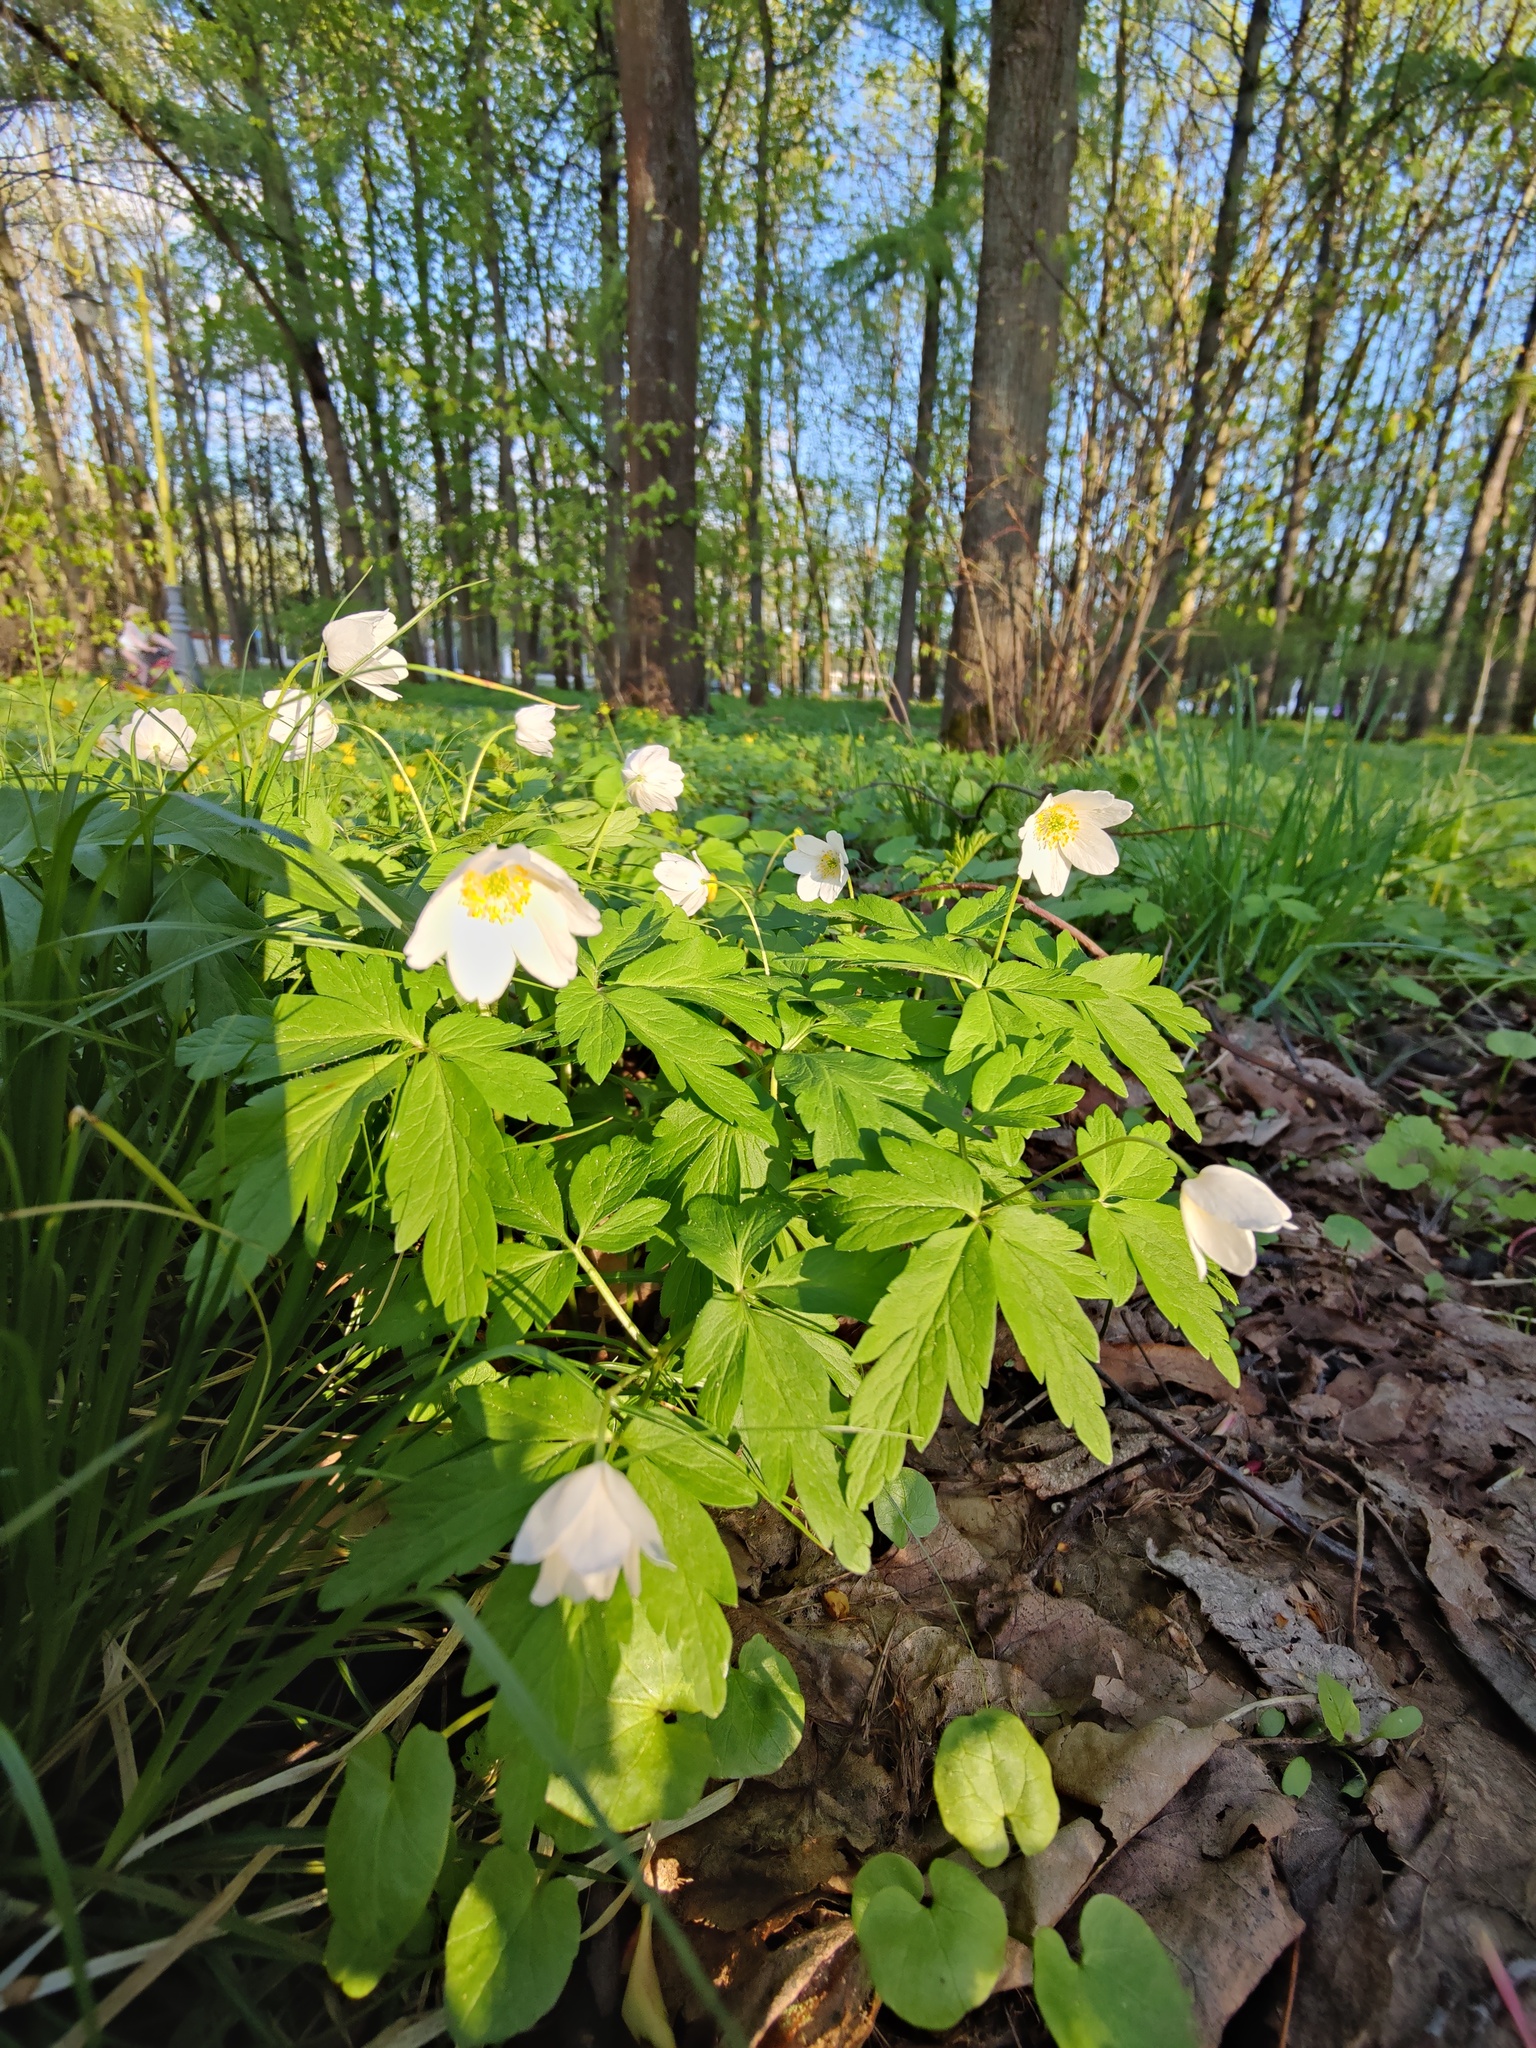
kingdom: Plantae
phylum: Tracheophyta
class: Magnoliopsida
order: Ranunculales
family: Ranunculaceae
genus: Anemone
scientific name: Anemone nemorosa
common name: Wood anemone
